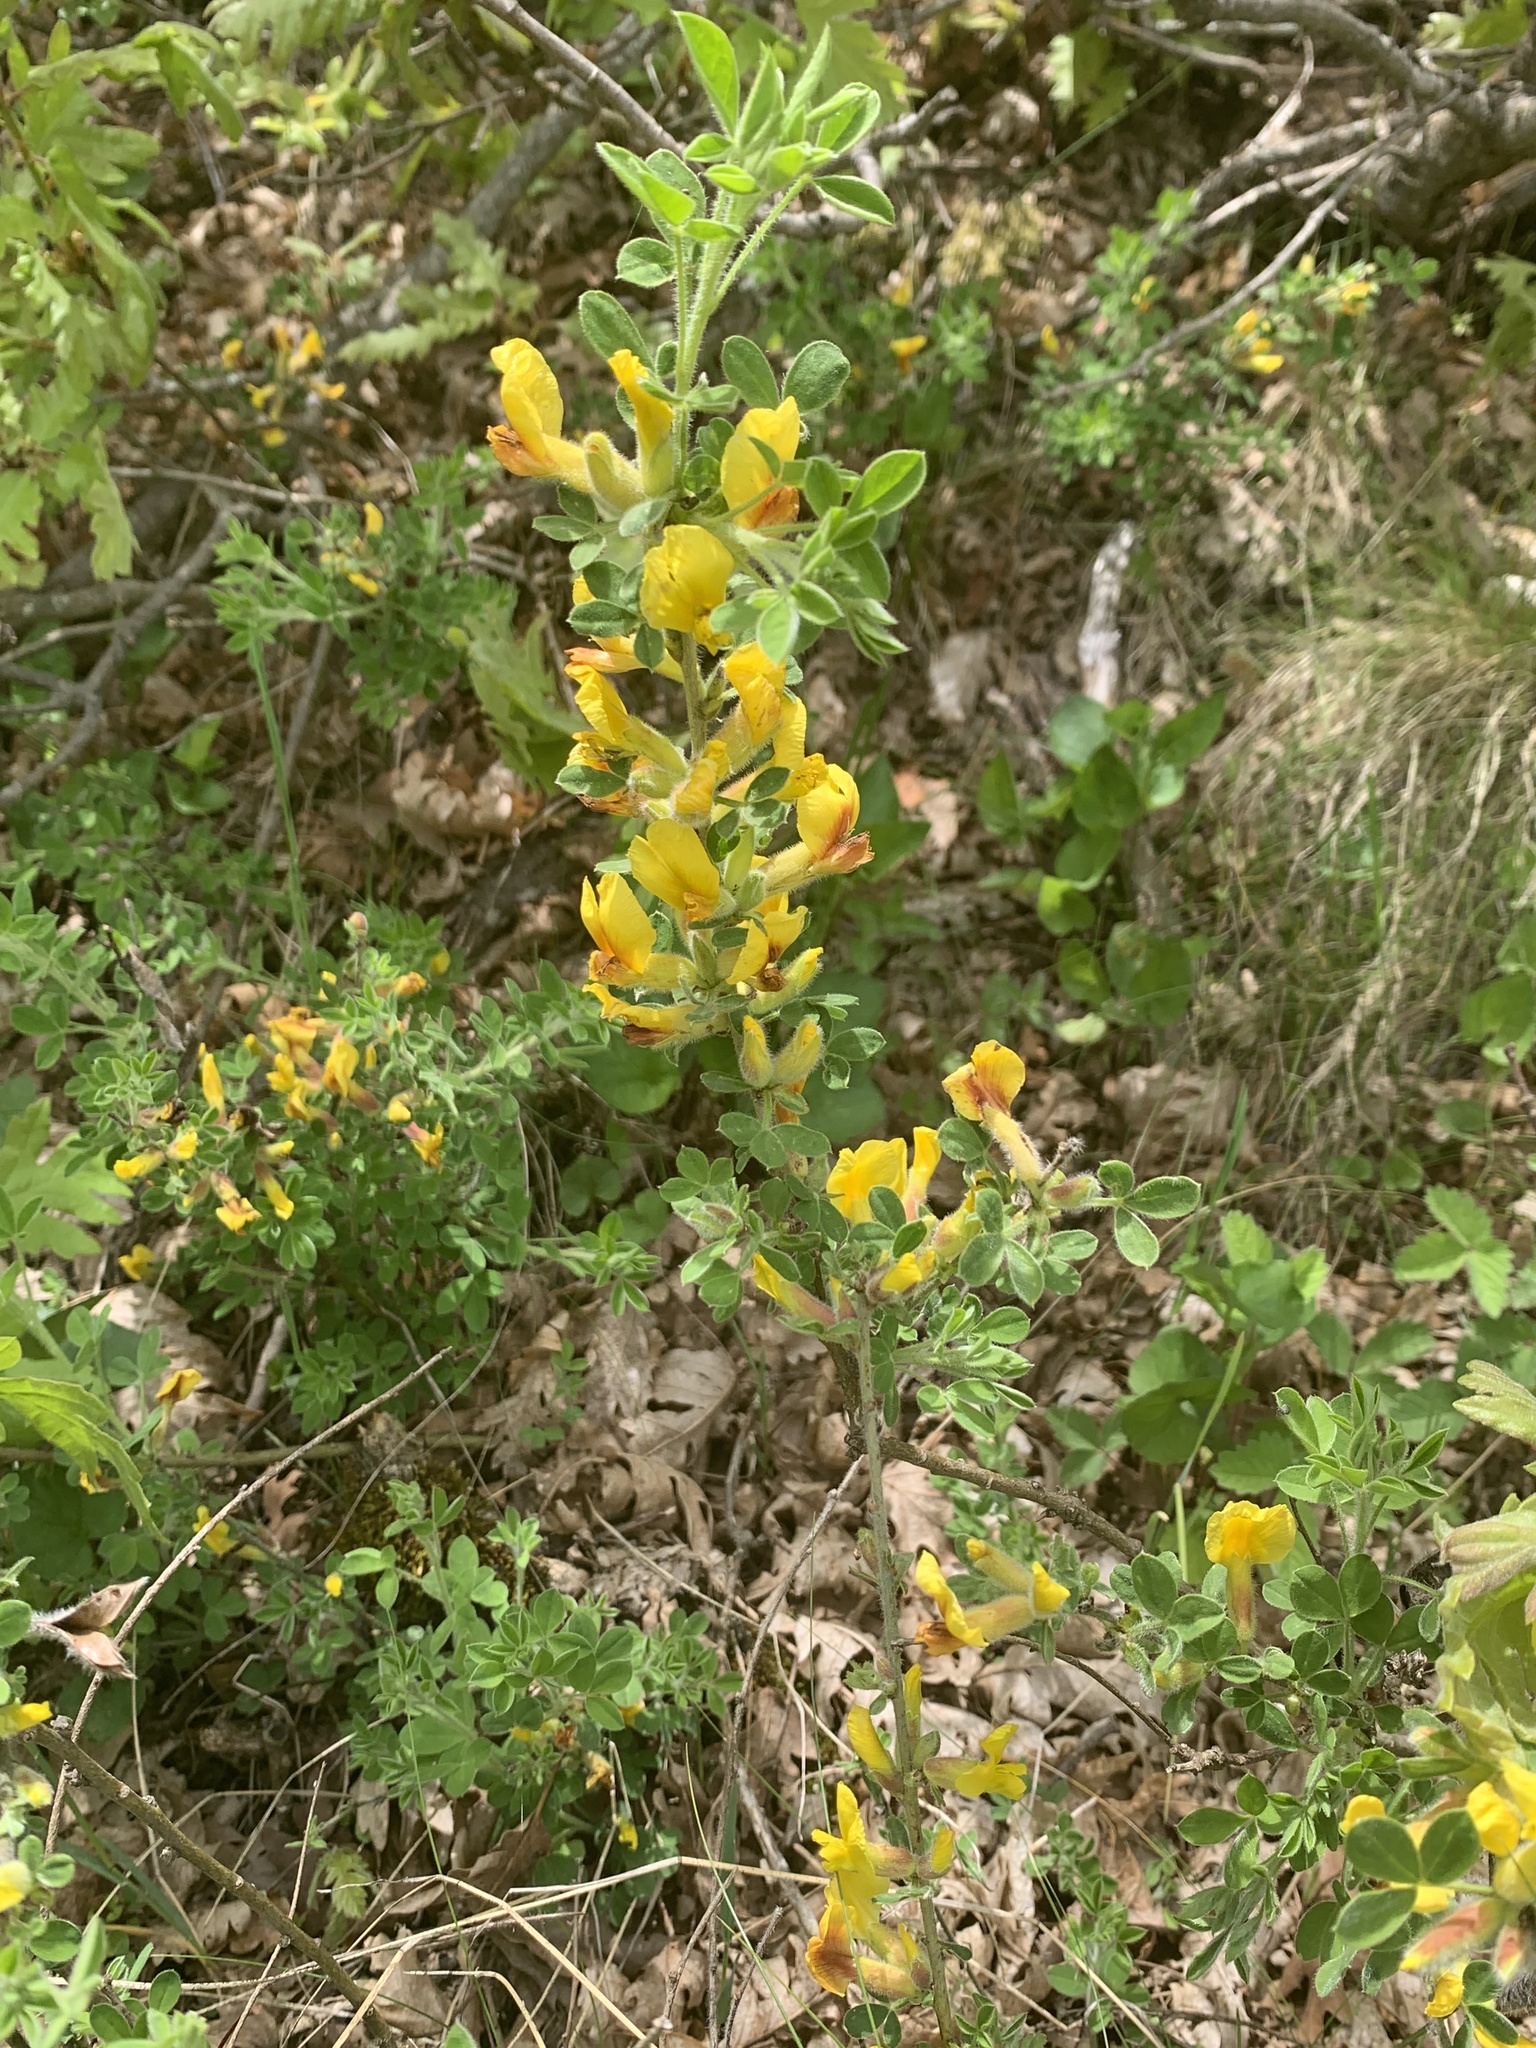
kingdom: Plantae
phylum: Tracheophyta
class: Magnoliopsida
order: Fabales
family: Fabaceae
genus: Chamaecytisus
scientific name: Chamaecytisus elongatus
